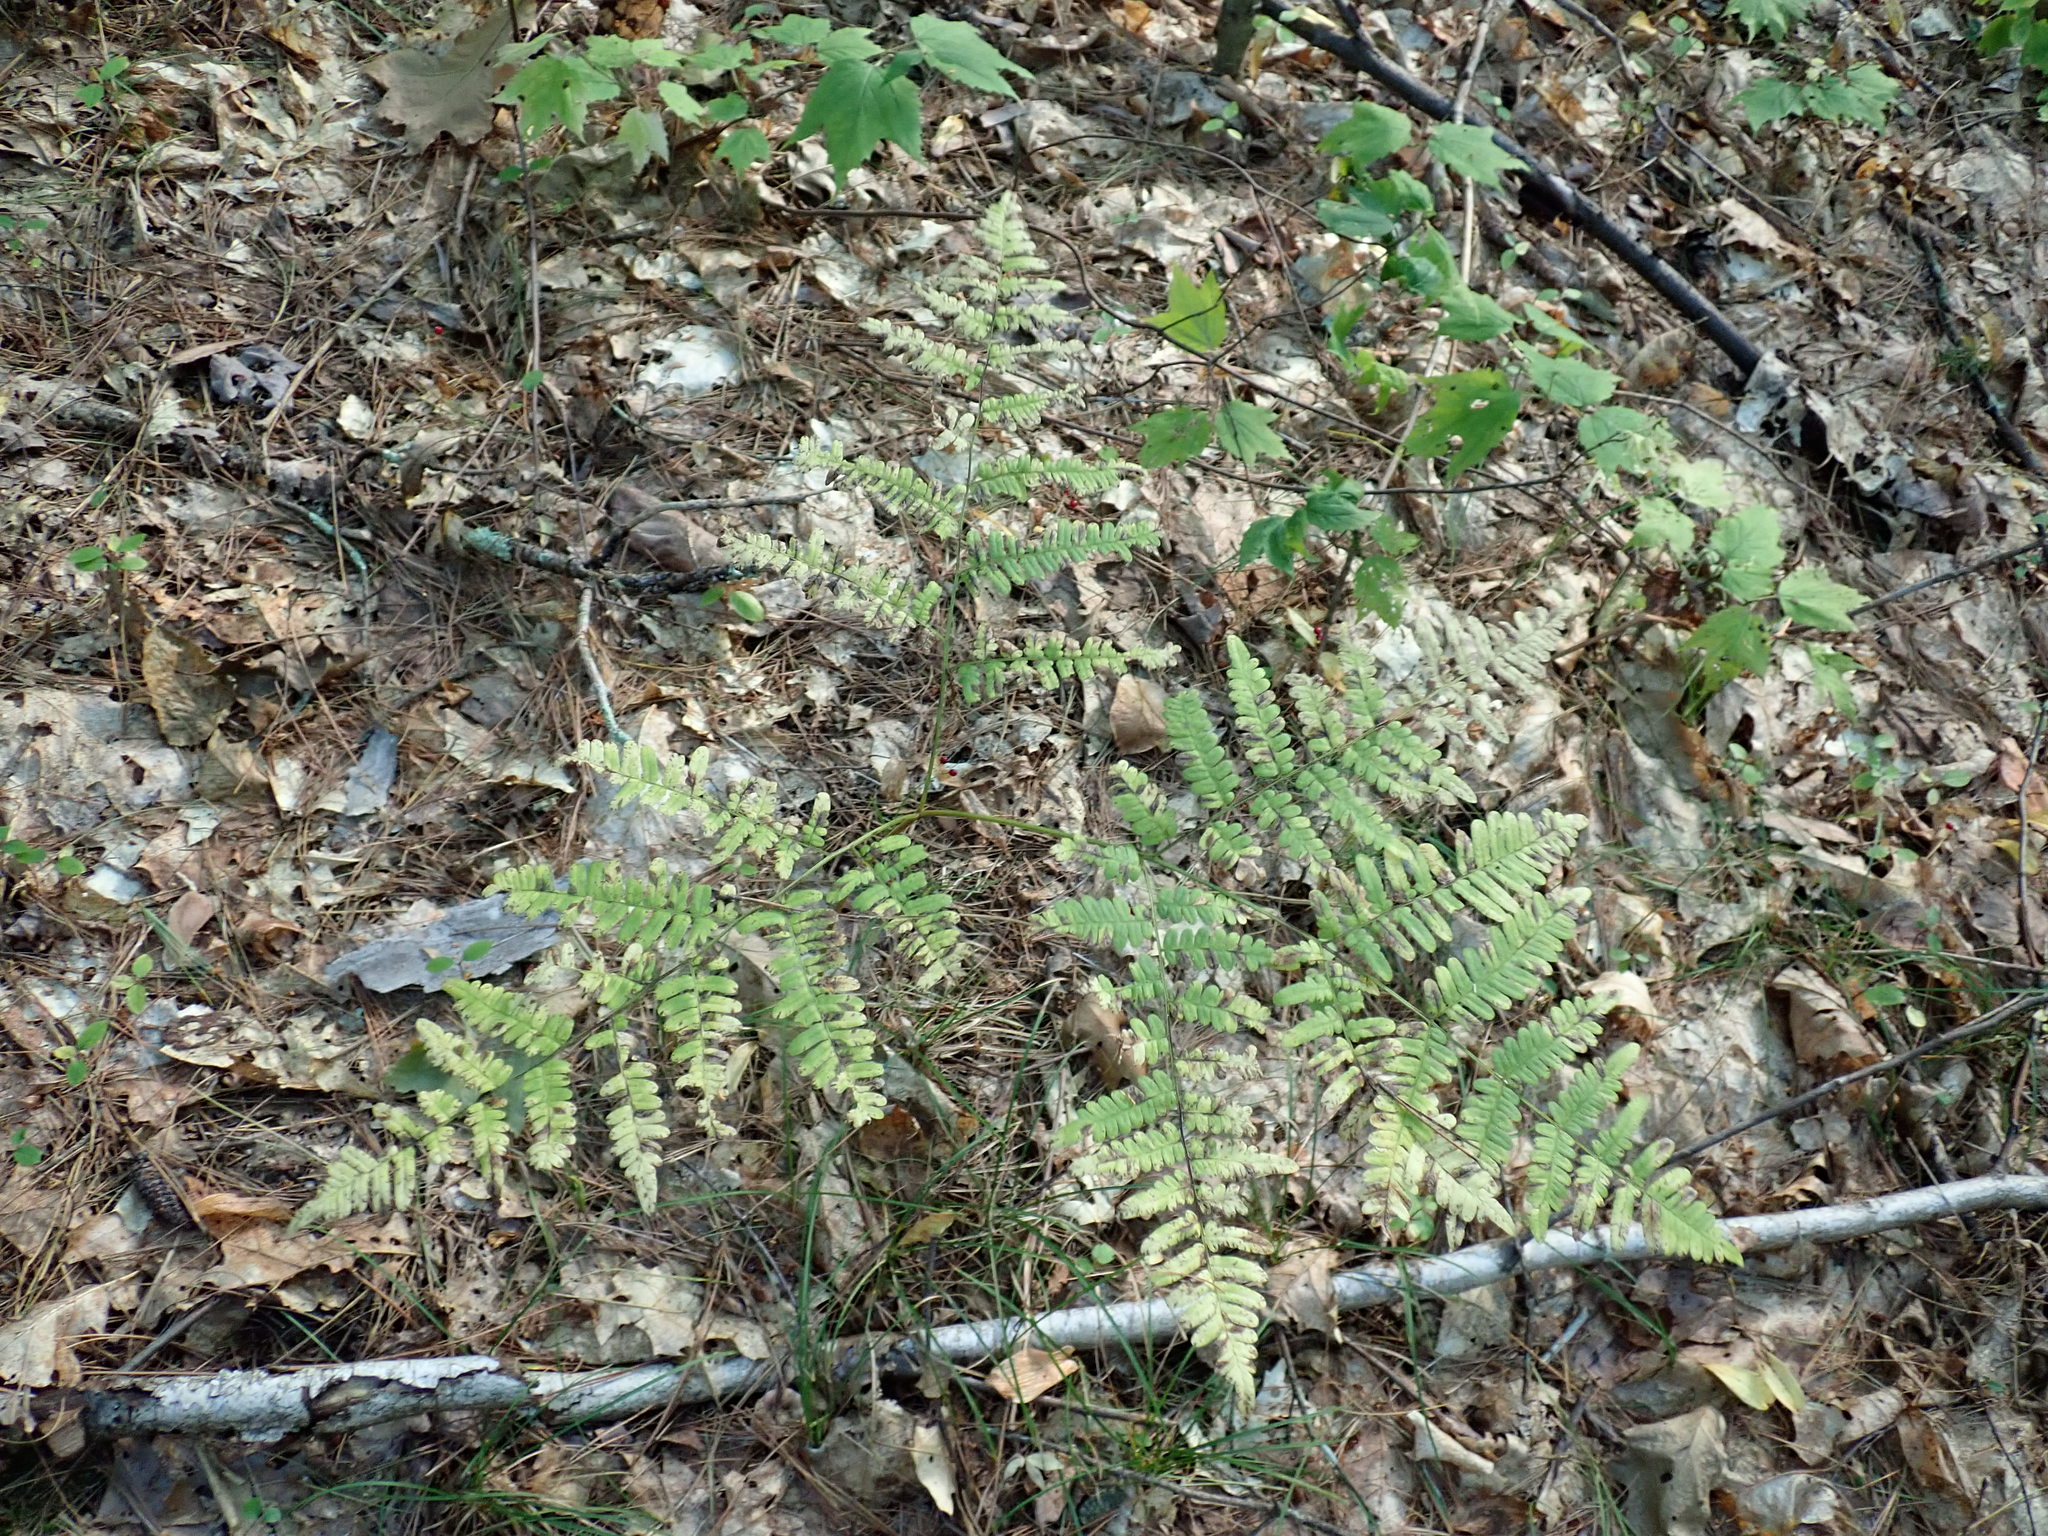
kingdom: Plantae
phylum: Tracheophyta
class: Polypodiopsida
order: Polypodiales
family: Dennstaedtiaceae
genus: Pteridium
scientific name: Pteridium aquilinum
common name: Bracken
